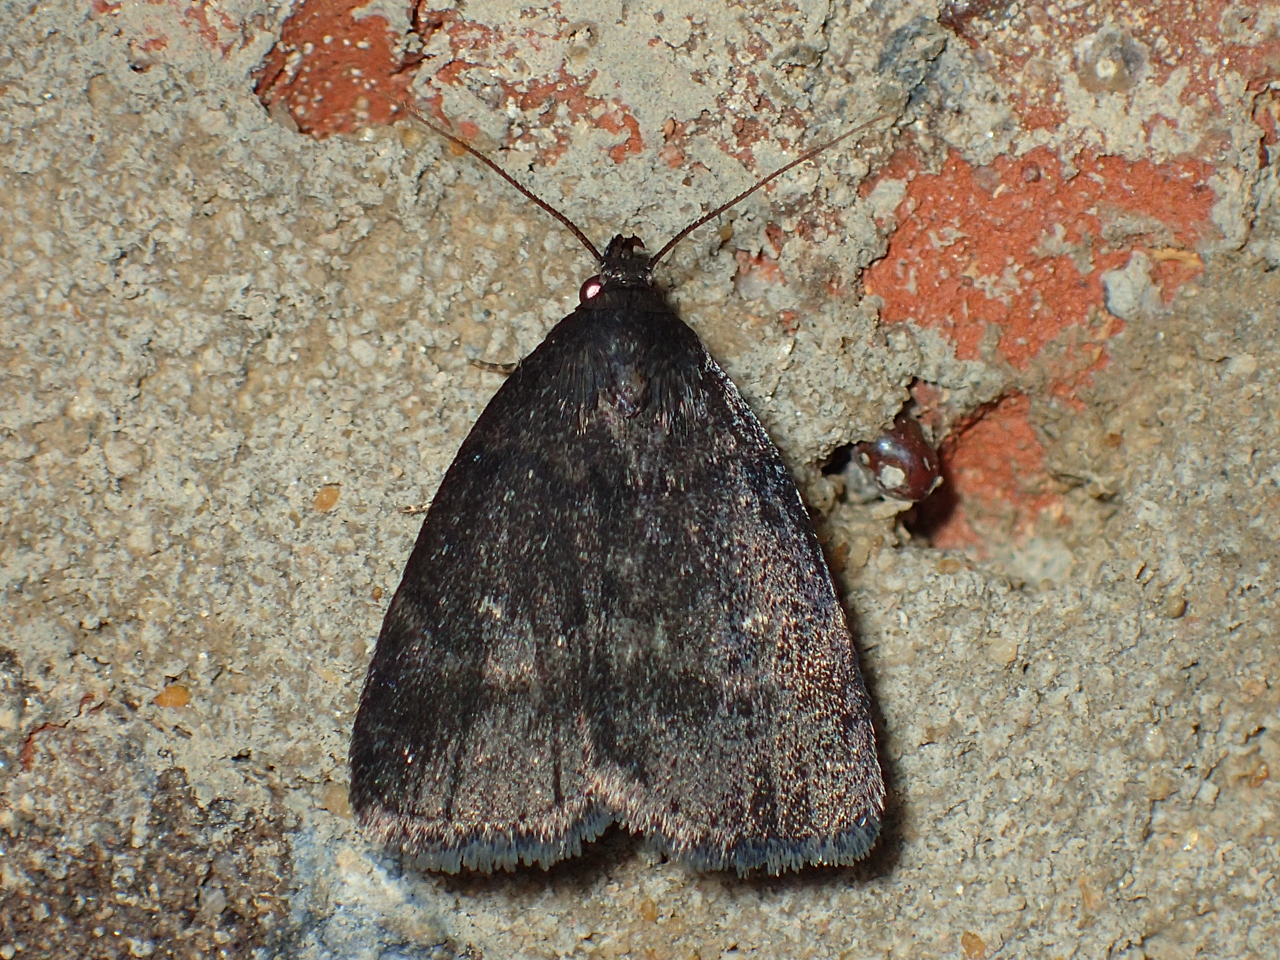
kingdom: Animalia
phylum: Arthropoda
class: Insecta
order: Lepidoptera
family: Erebidae
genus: Idia
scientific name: Idia rotundalis
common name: Rotund idia moth
